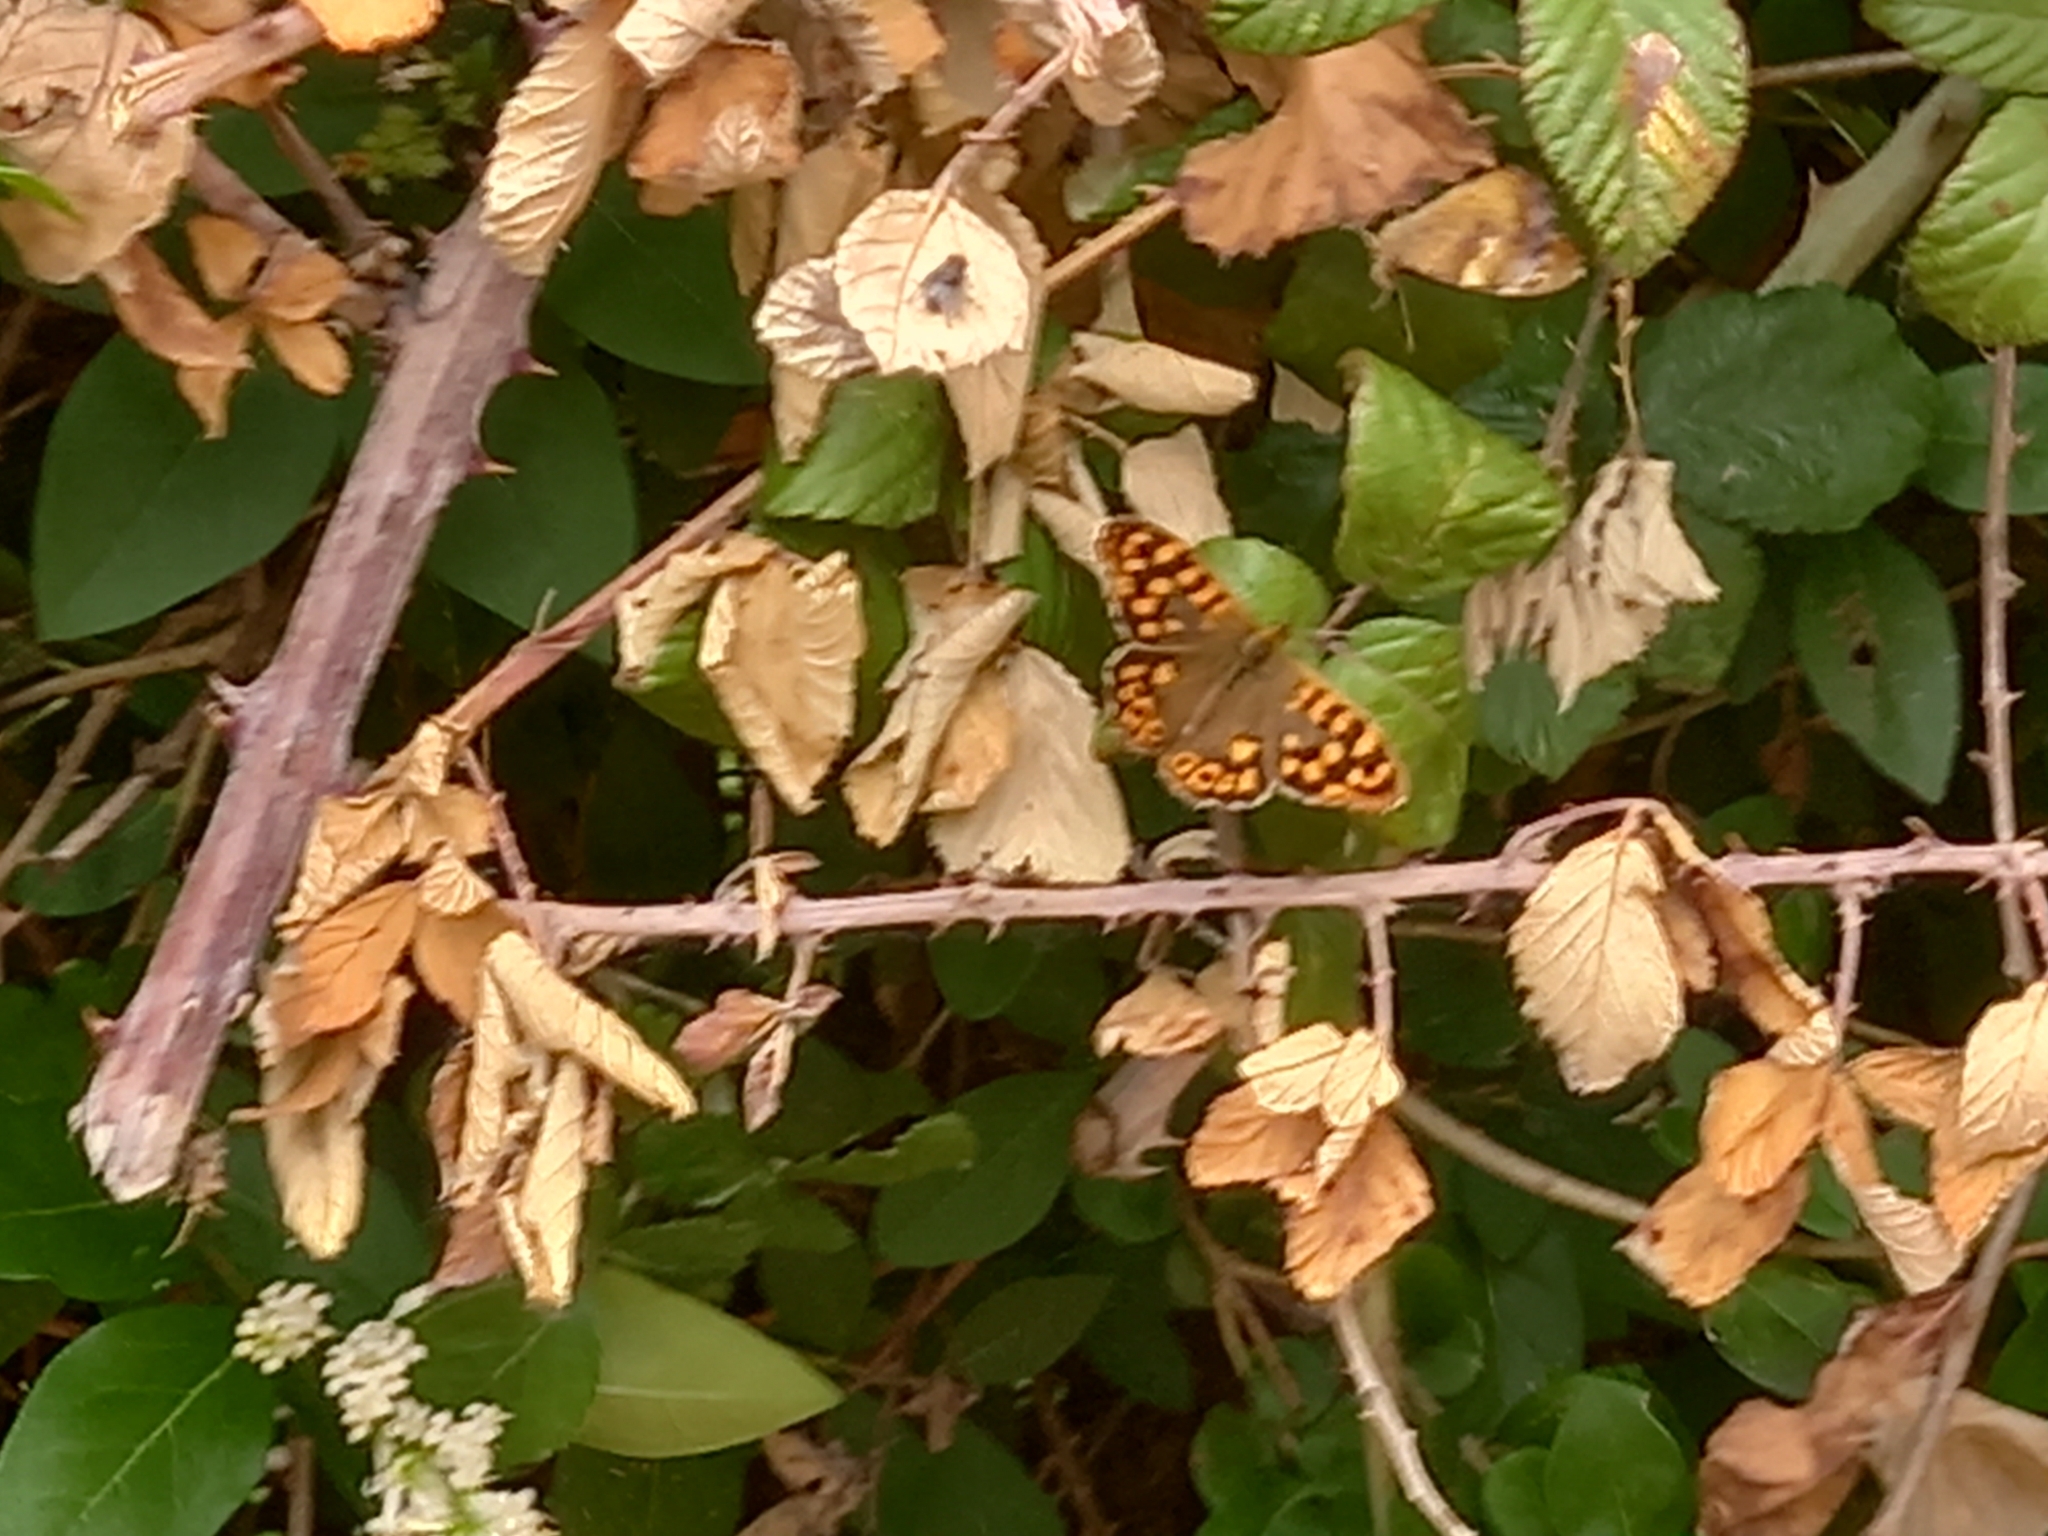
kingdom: Animalia
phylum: Arthropoda
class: Insecta
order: Lepidoptera
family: Nymphalidae
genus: Pararge
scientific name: Pararge aegeria
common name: Speckled wood
